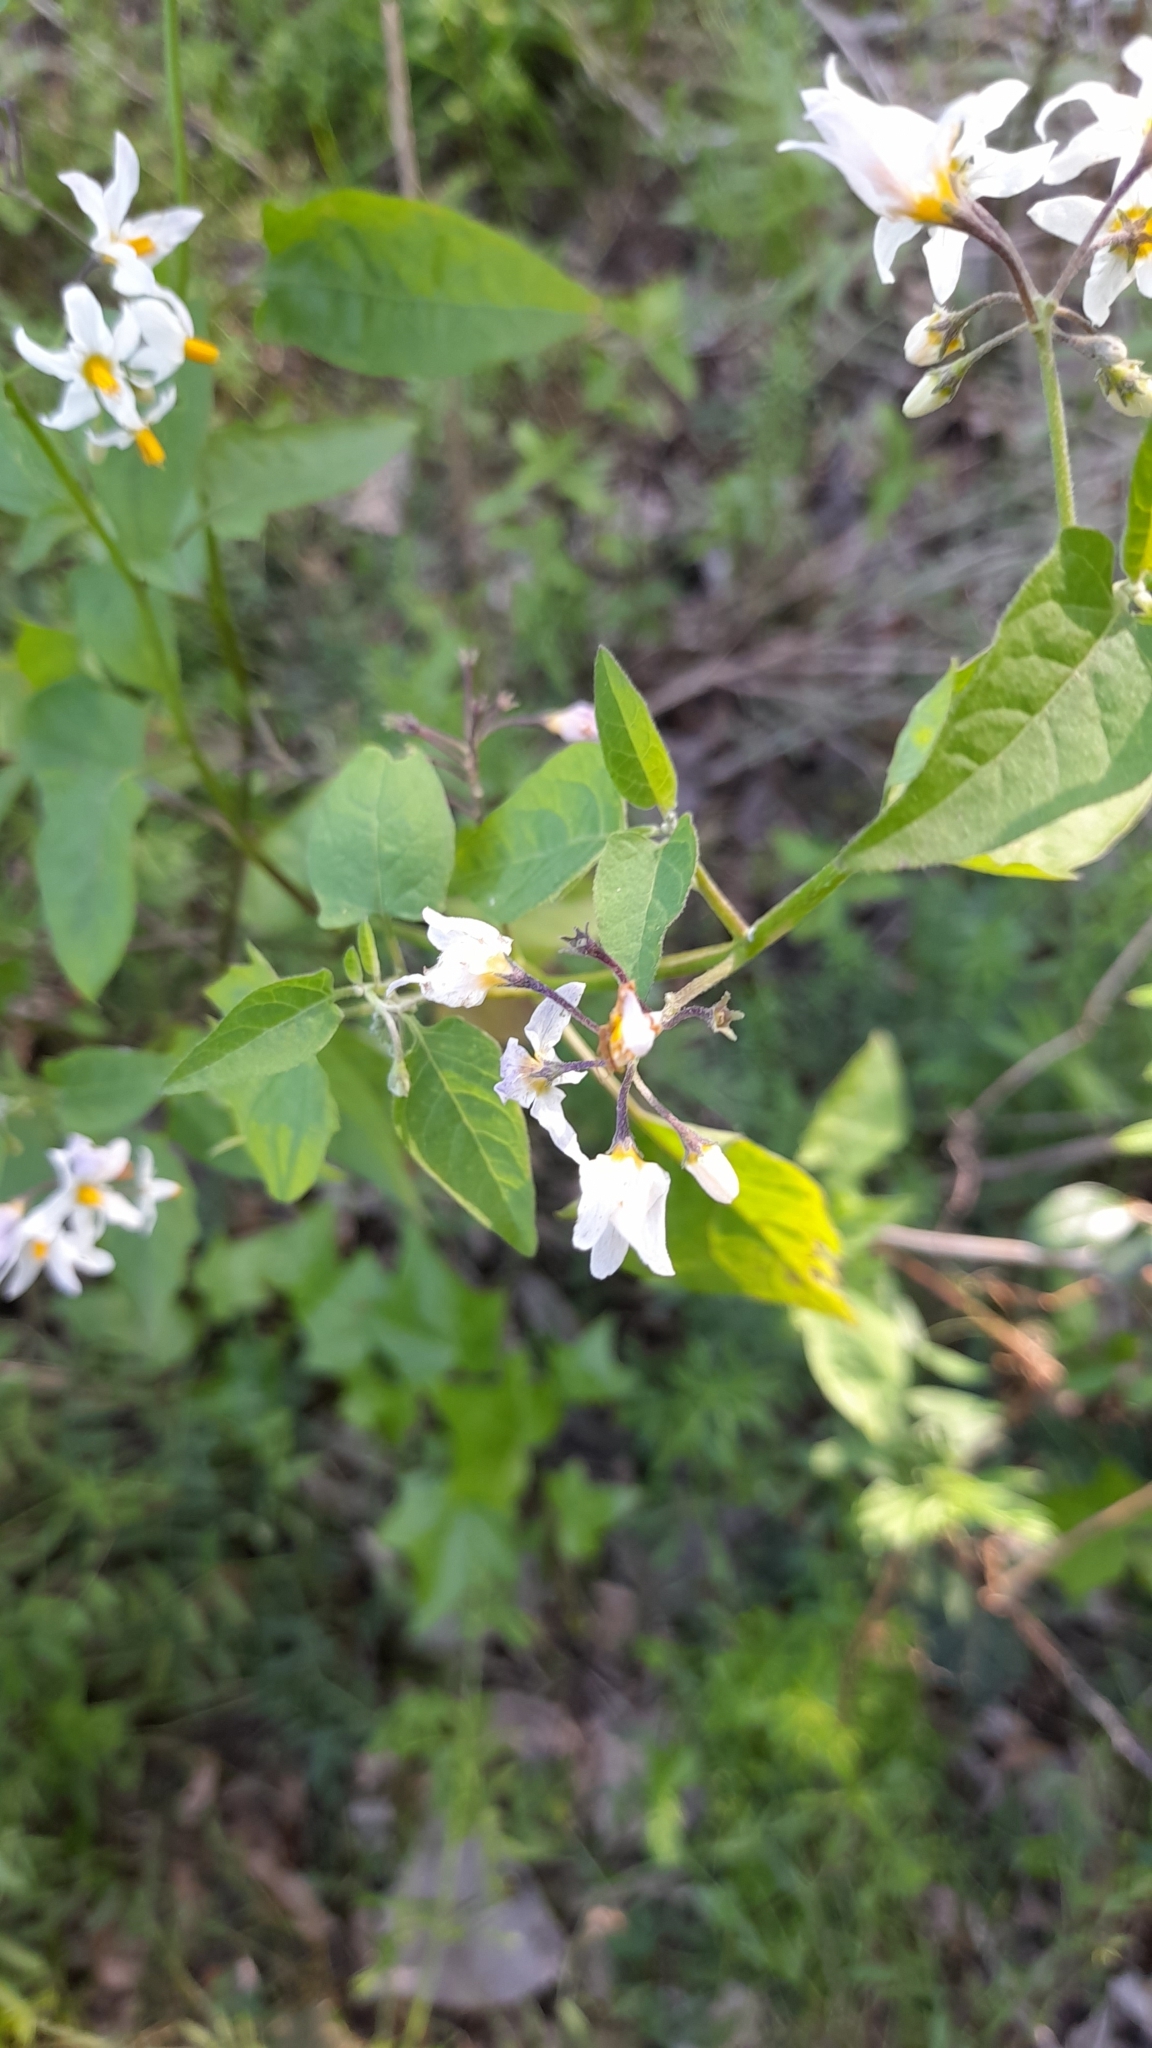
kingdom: Plantae
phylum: Tracheophyta
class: Magnoliopsida
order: Solanales
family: Solanaceae
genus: Solanum
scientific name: Solanum pilcomayense
